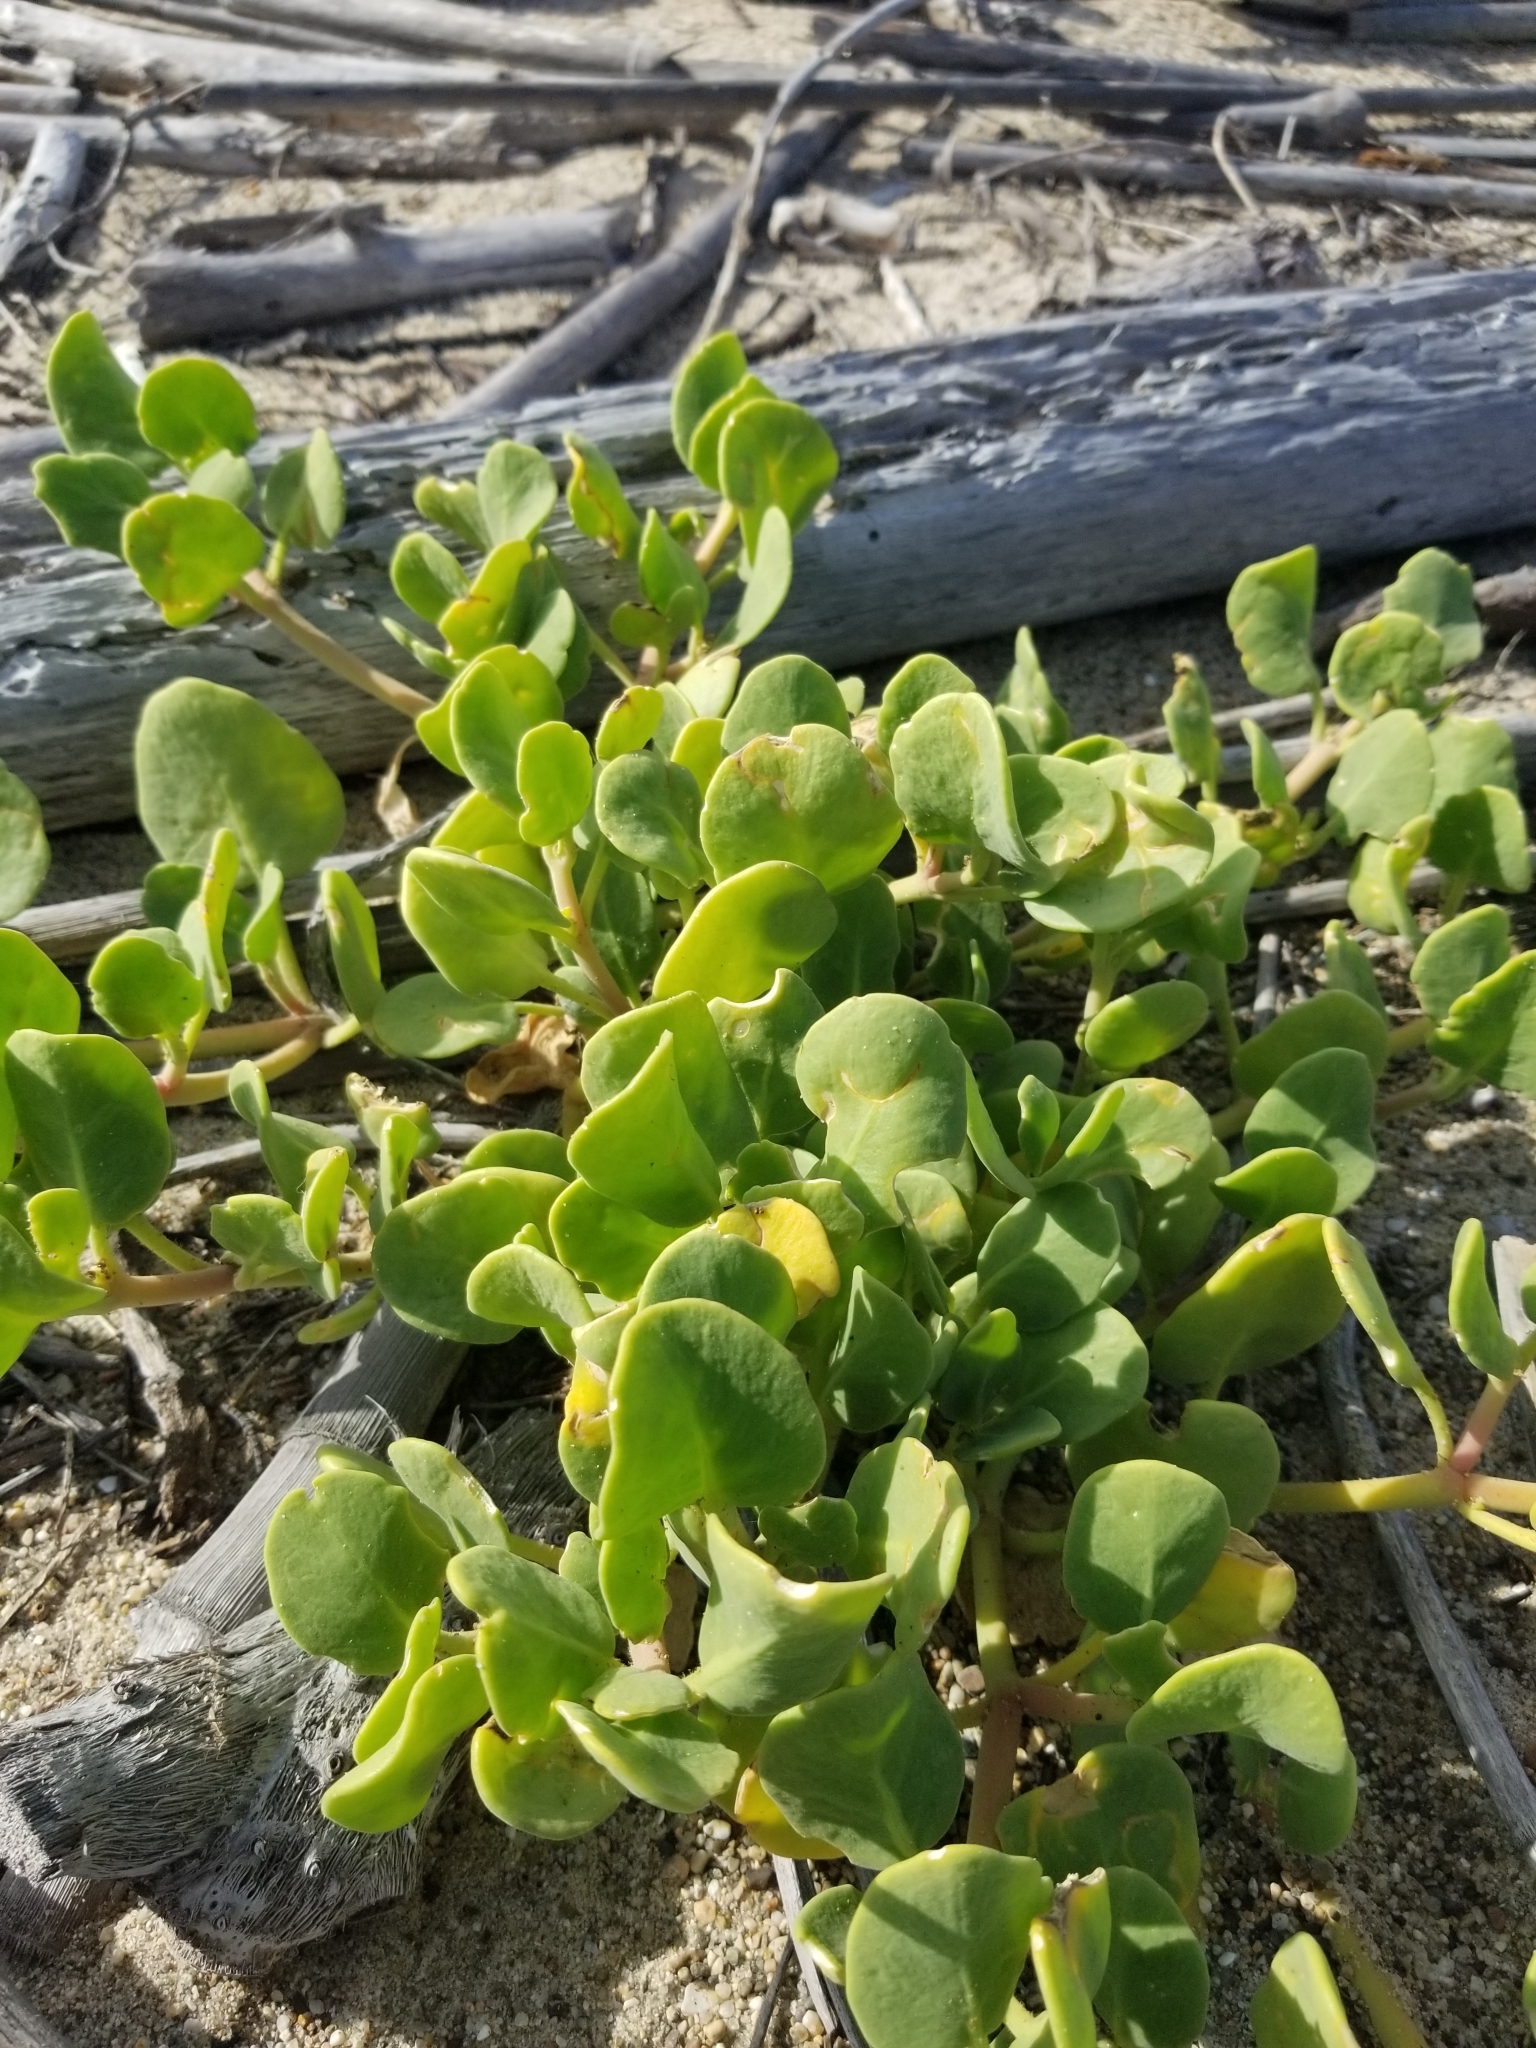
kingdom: Plantae
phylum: Tracheophyta
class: Magnoliopsida
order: Caryophyllales
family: Nyctaginaceae
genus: Abronia
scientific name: Abronia maritima
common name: Red sand-verbena
